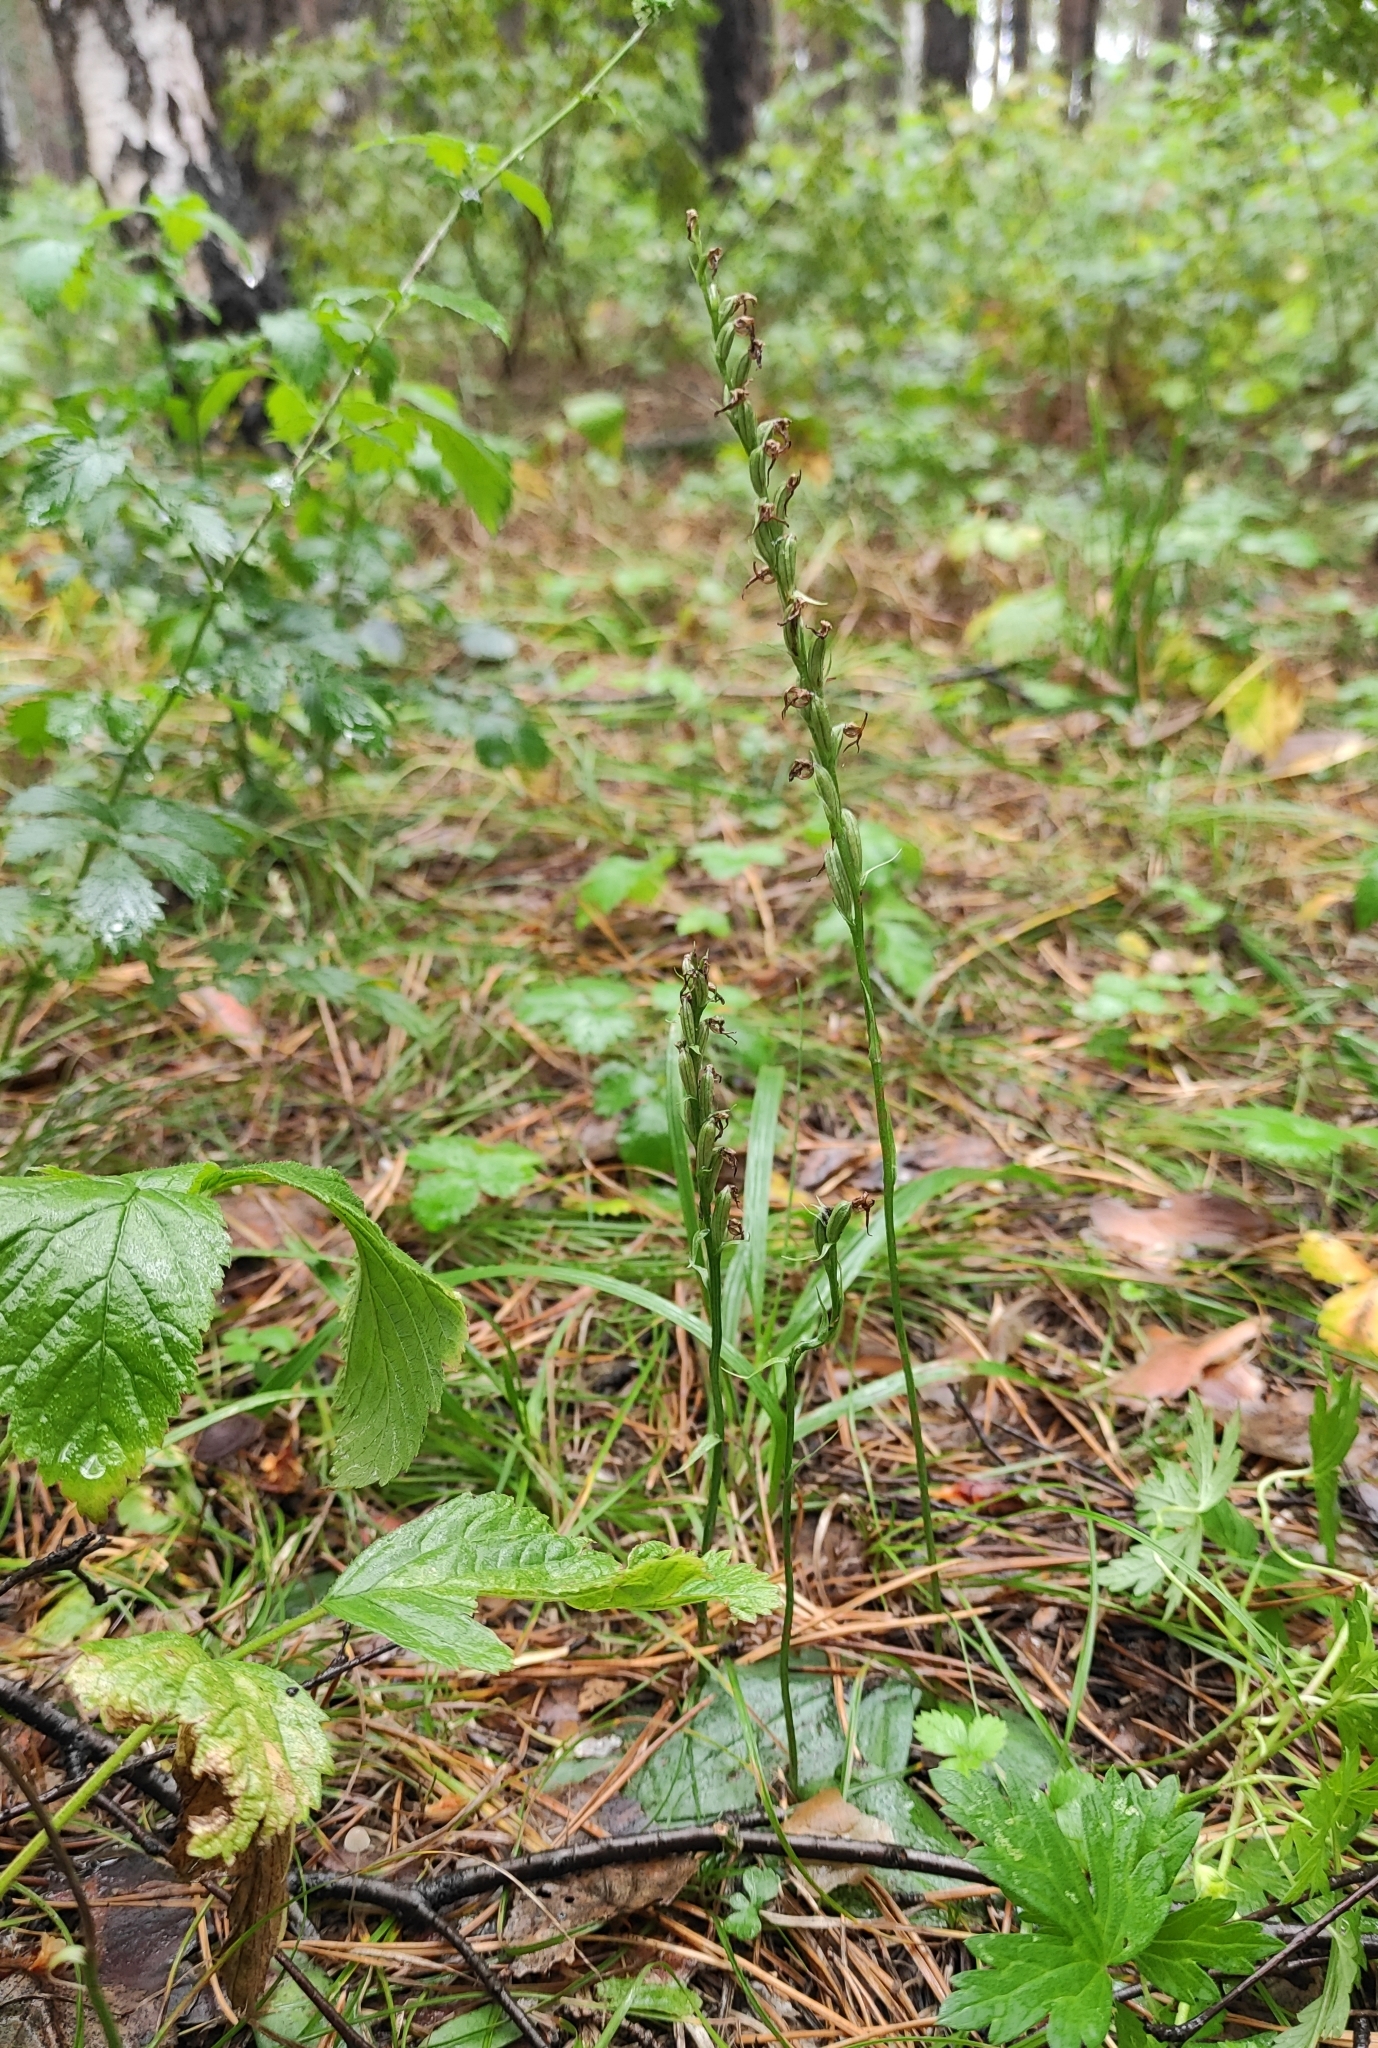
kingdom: Plantae
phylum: Tracheophyta
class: Liliopsida
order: Asparagales
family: Orchidaceae
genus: Hemipilia
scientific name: Hemipilia cucullata
